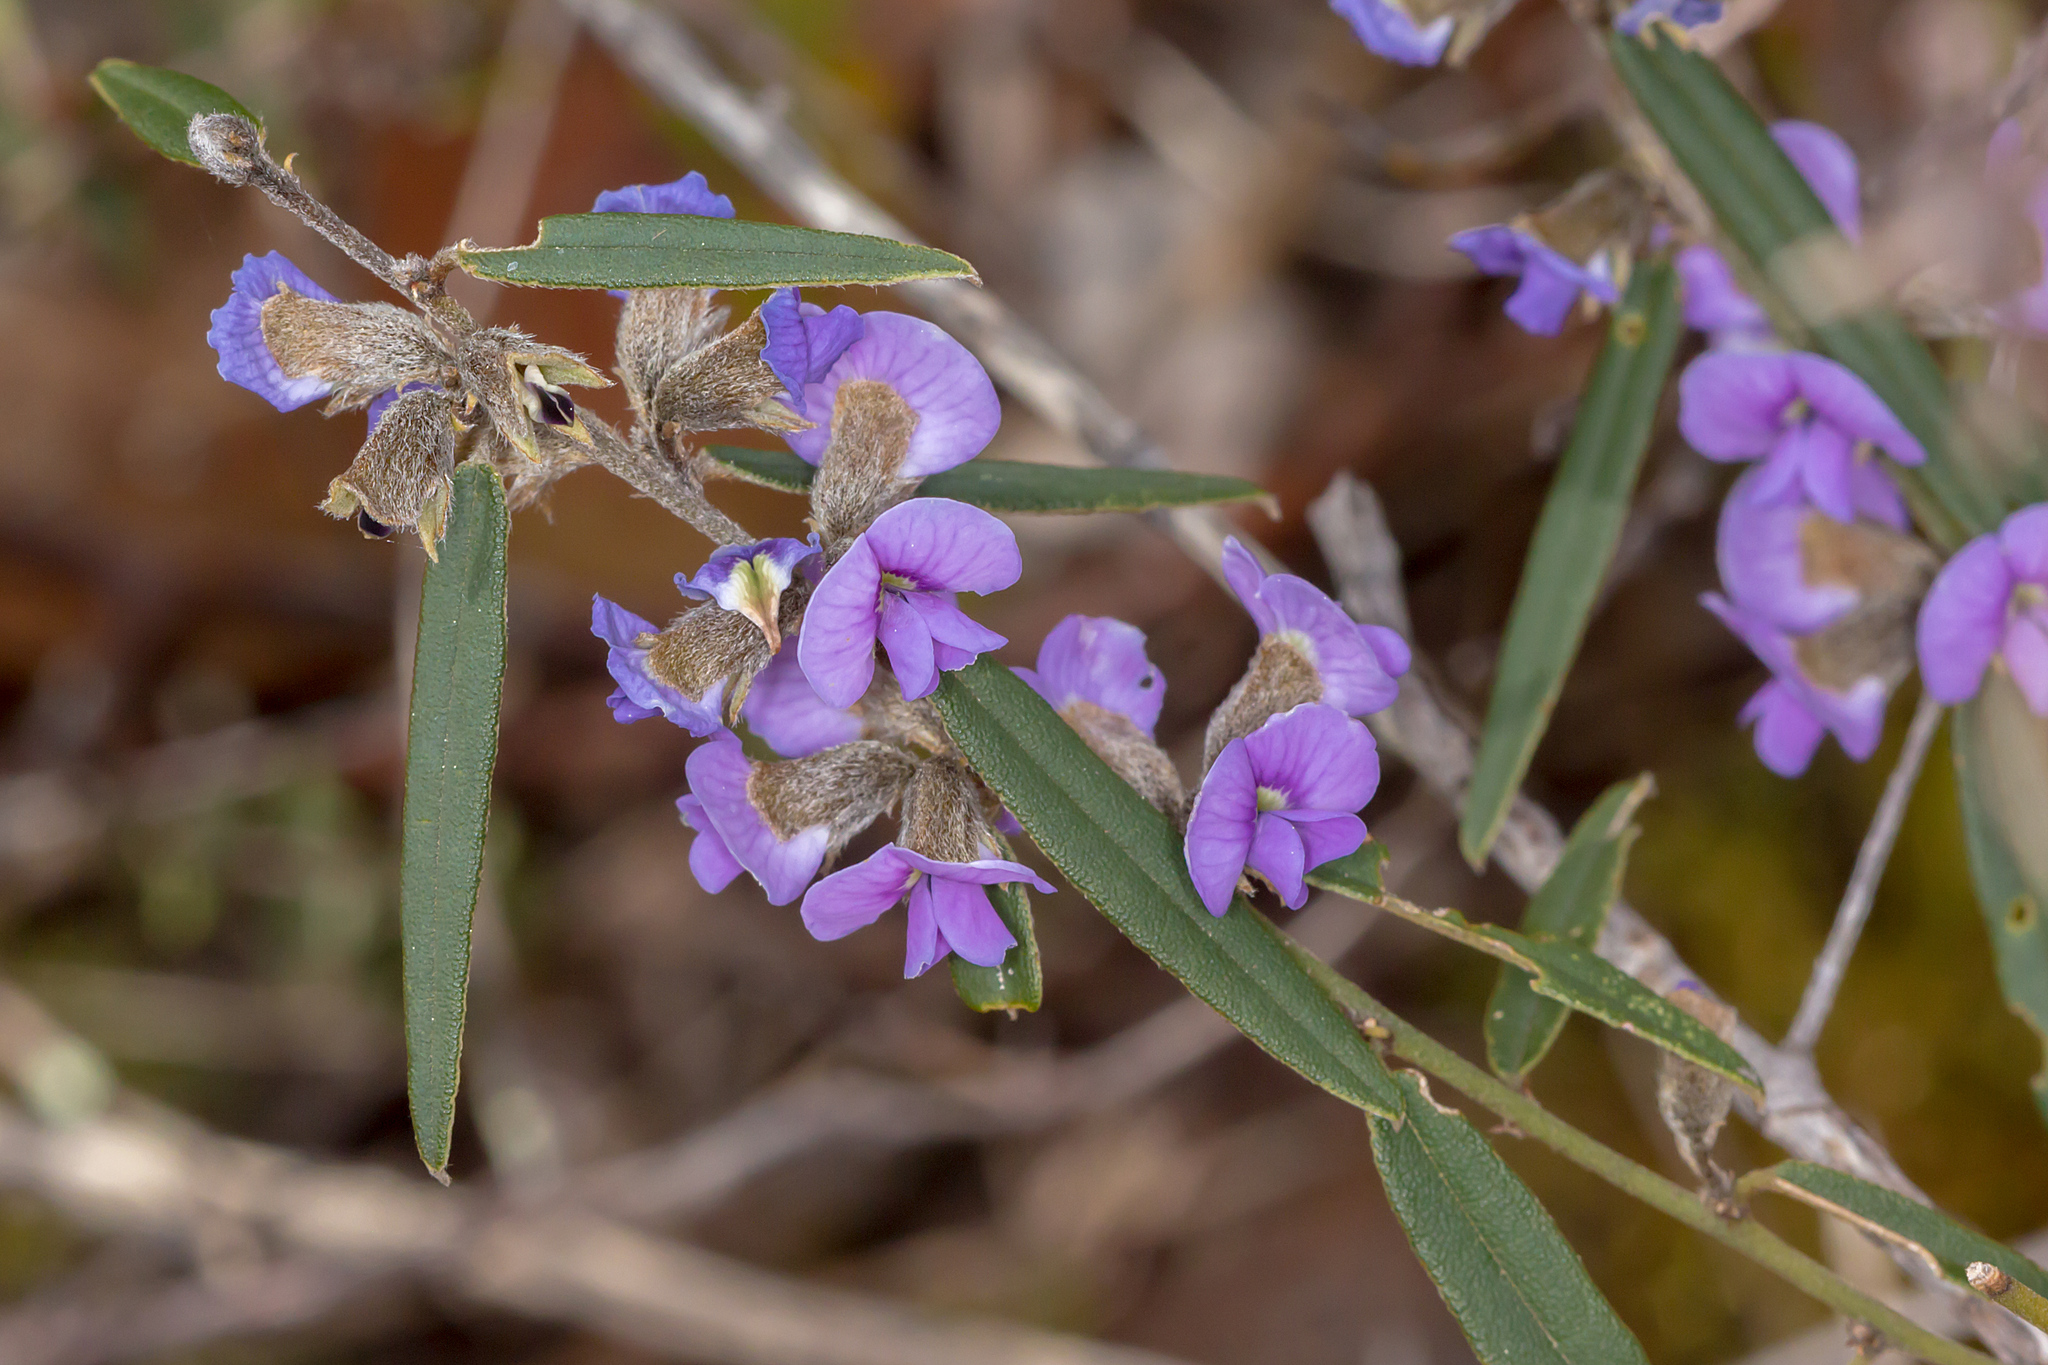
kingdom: Plantae
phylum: Tracheophyta
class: Magnoliopsida
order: Fabales
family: Fabaceae
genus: Hovea
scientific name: Hovea heterophylla
